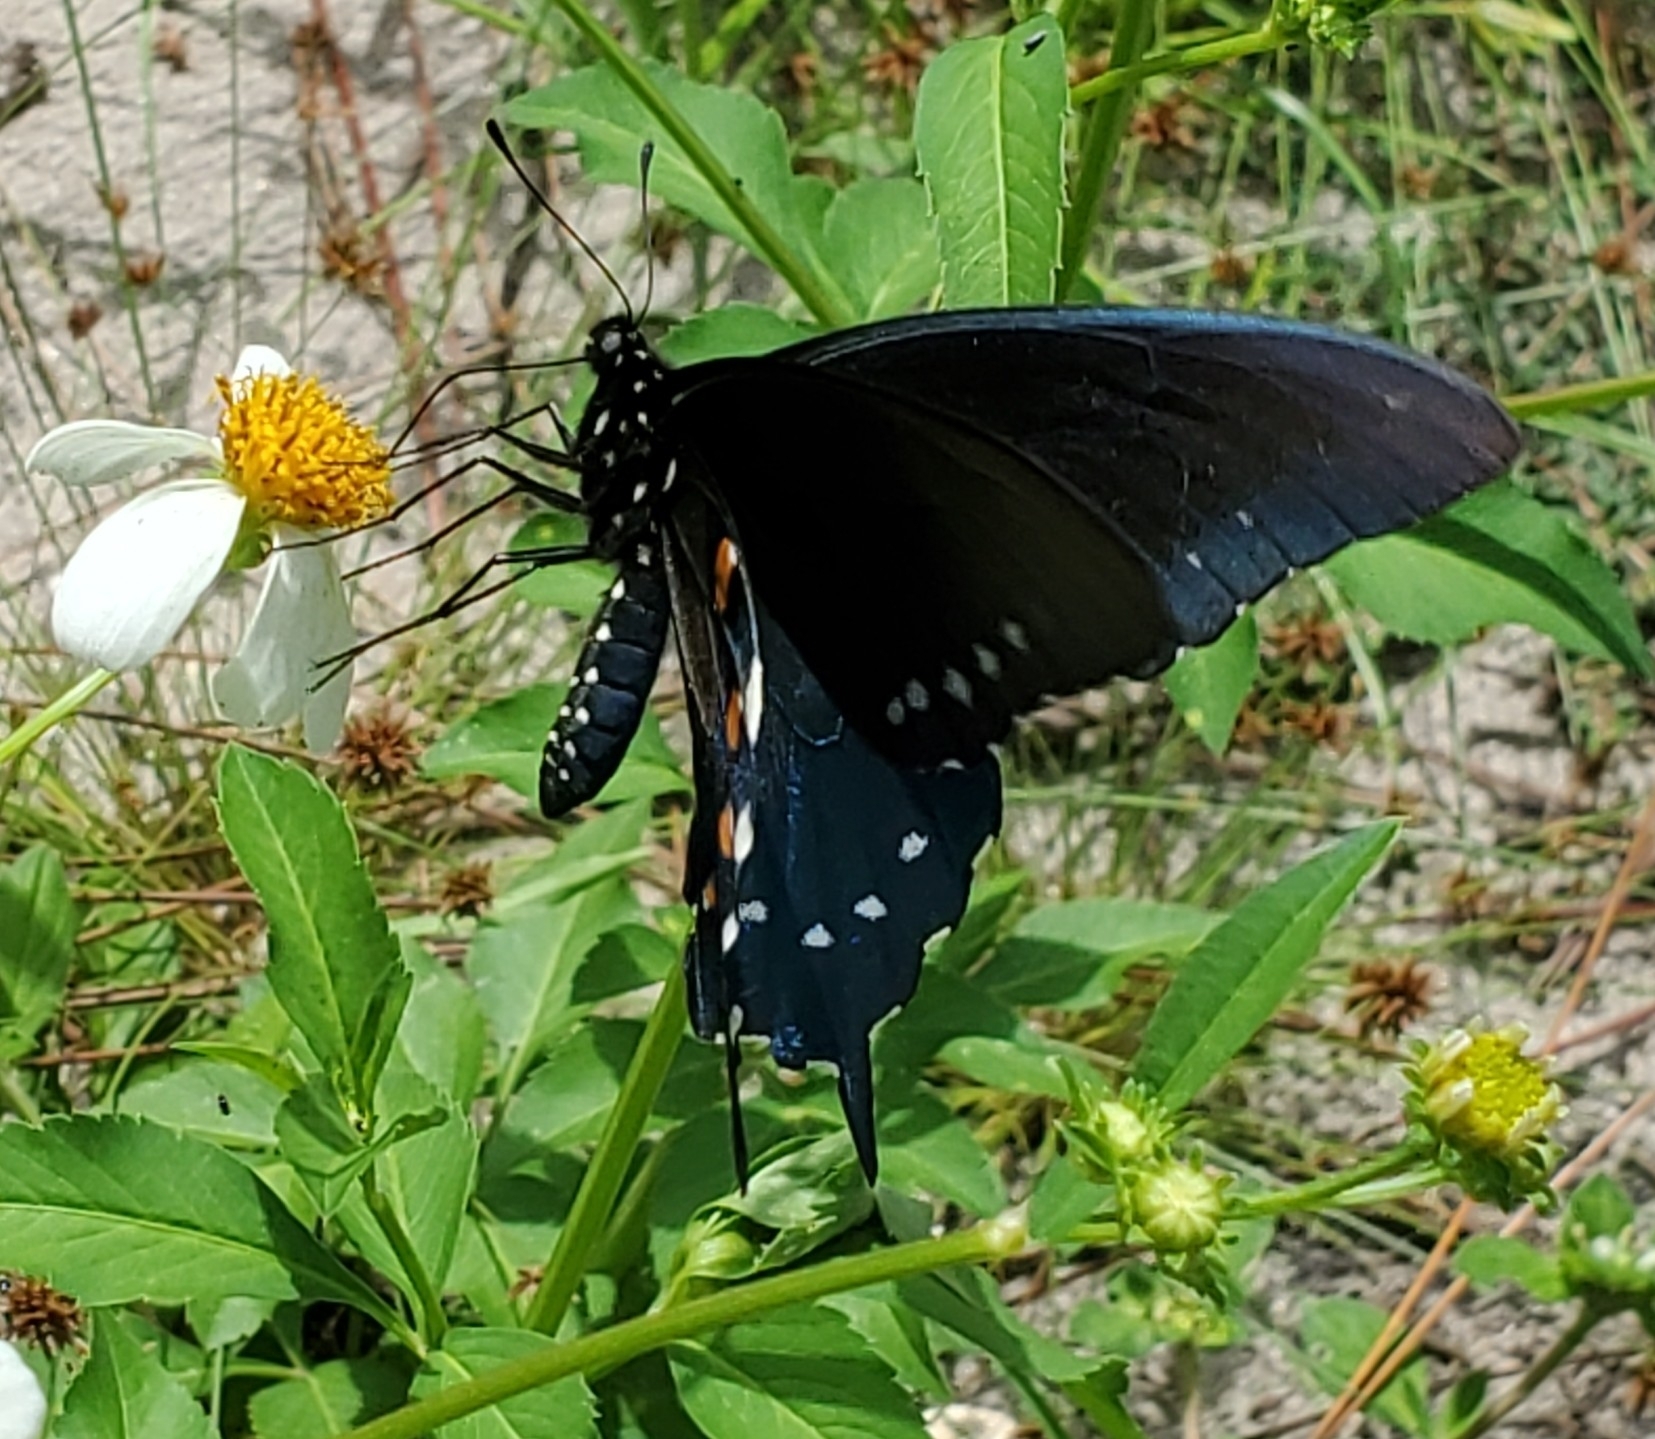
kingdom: Animalia
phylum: Arthropoda
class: Insecta
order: Lepidoptera
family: Papilionidae
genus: Battus
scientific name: Battus philenor
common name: Pipevine swallowtail
